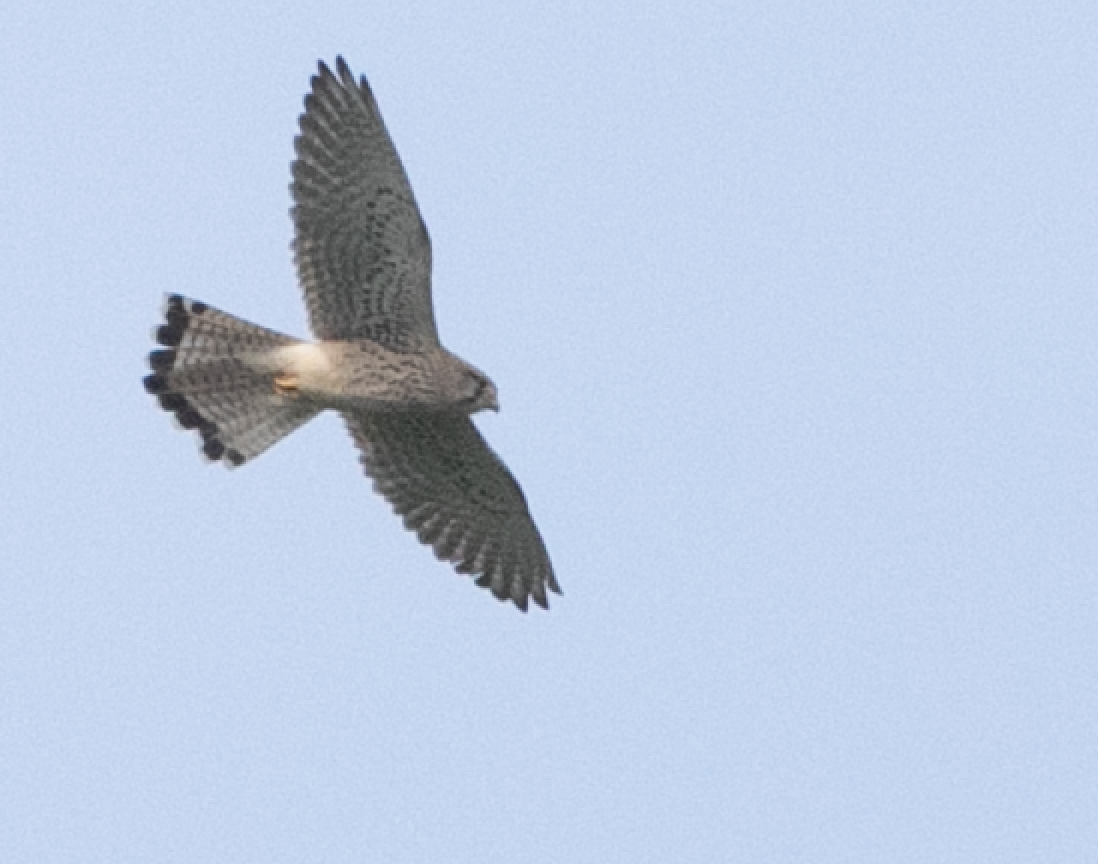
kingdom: Animalia
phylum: Chordata
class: Aves
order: Falconiformes
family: Falconidae
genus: Falco
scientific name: Falco tinnunculus
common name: Common kestrel
